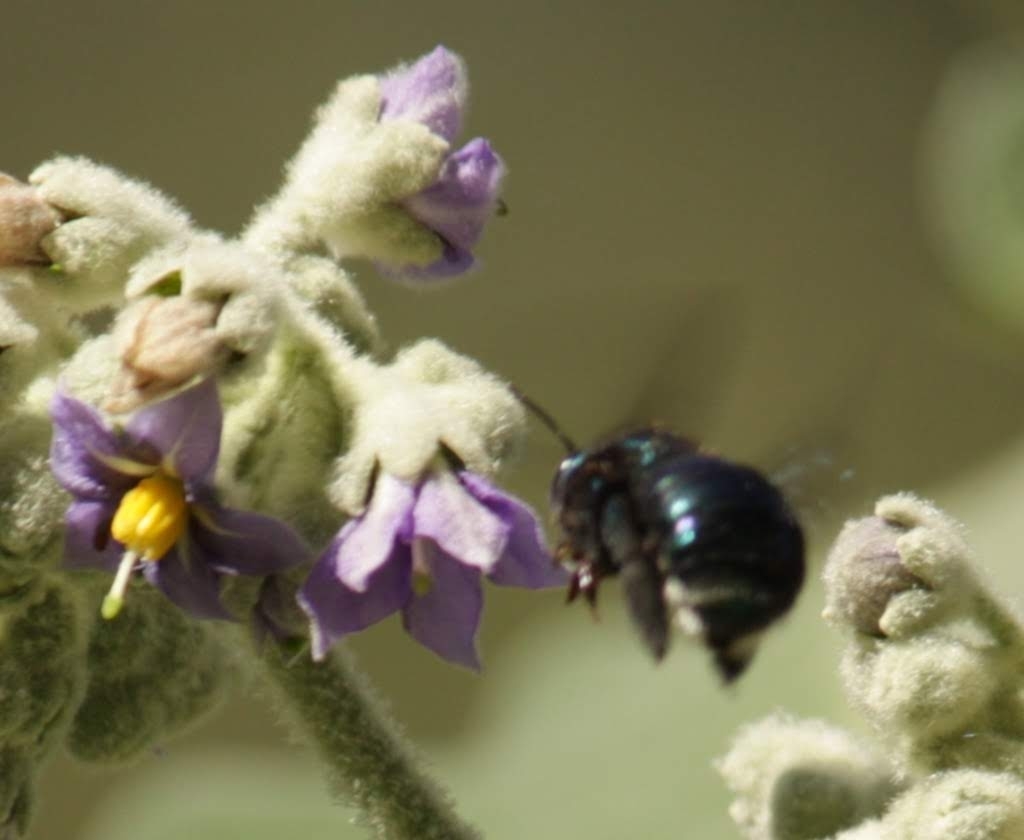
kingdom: Animalia
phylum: Arthropoda
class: Insecta
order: Hymenoptera
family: Apidae
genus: Xylocopa
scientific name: Xylocopa bombylans
